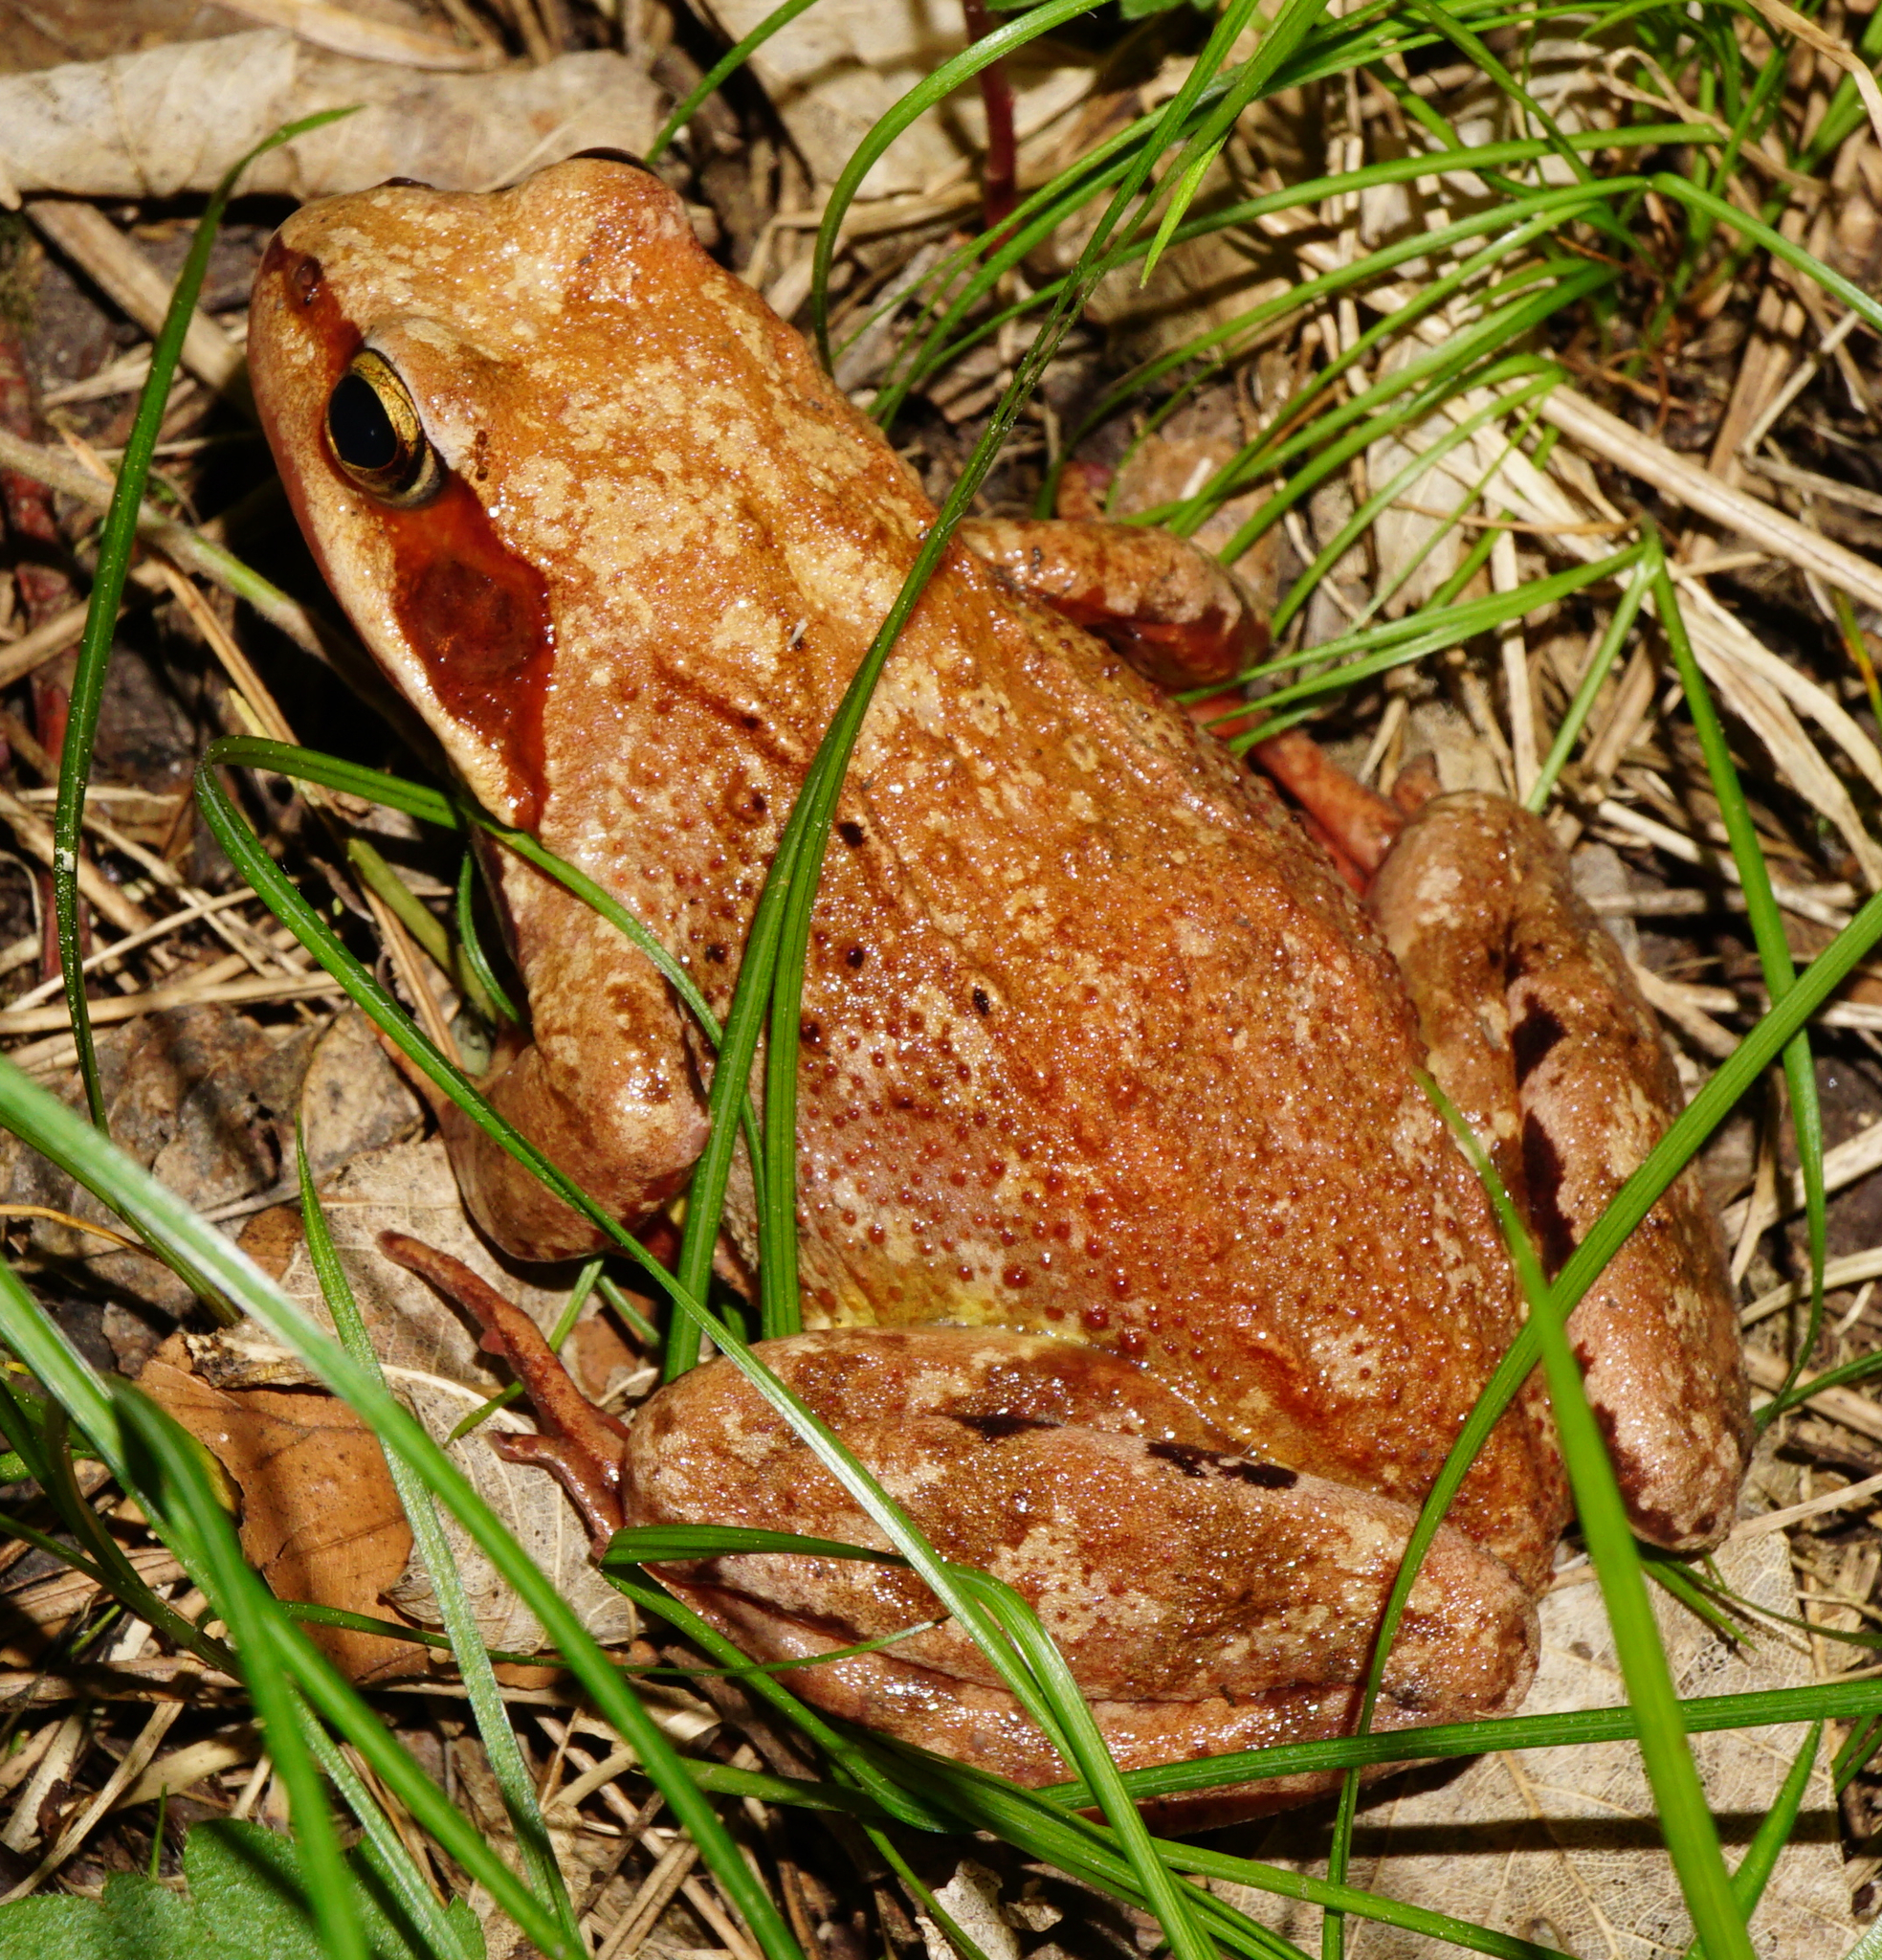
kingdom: Animalia
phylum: Chordata
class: Amphibia
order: Anura
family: Ranidae
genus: Rana
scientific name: Rana temporaria
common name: Common frog
